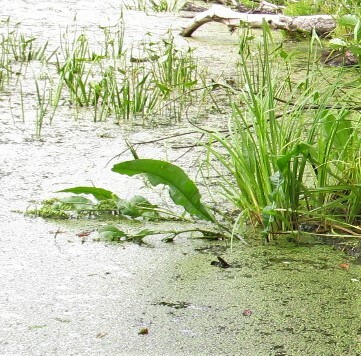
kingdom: Plantae
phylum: Tracheophyta
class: Magnoliopsida
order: Caryophyllales
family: Polygonaceae
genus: Rumex
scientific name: Rumex hydrolapathum
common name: Water dock
